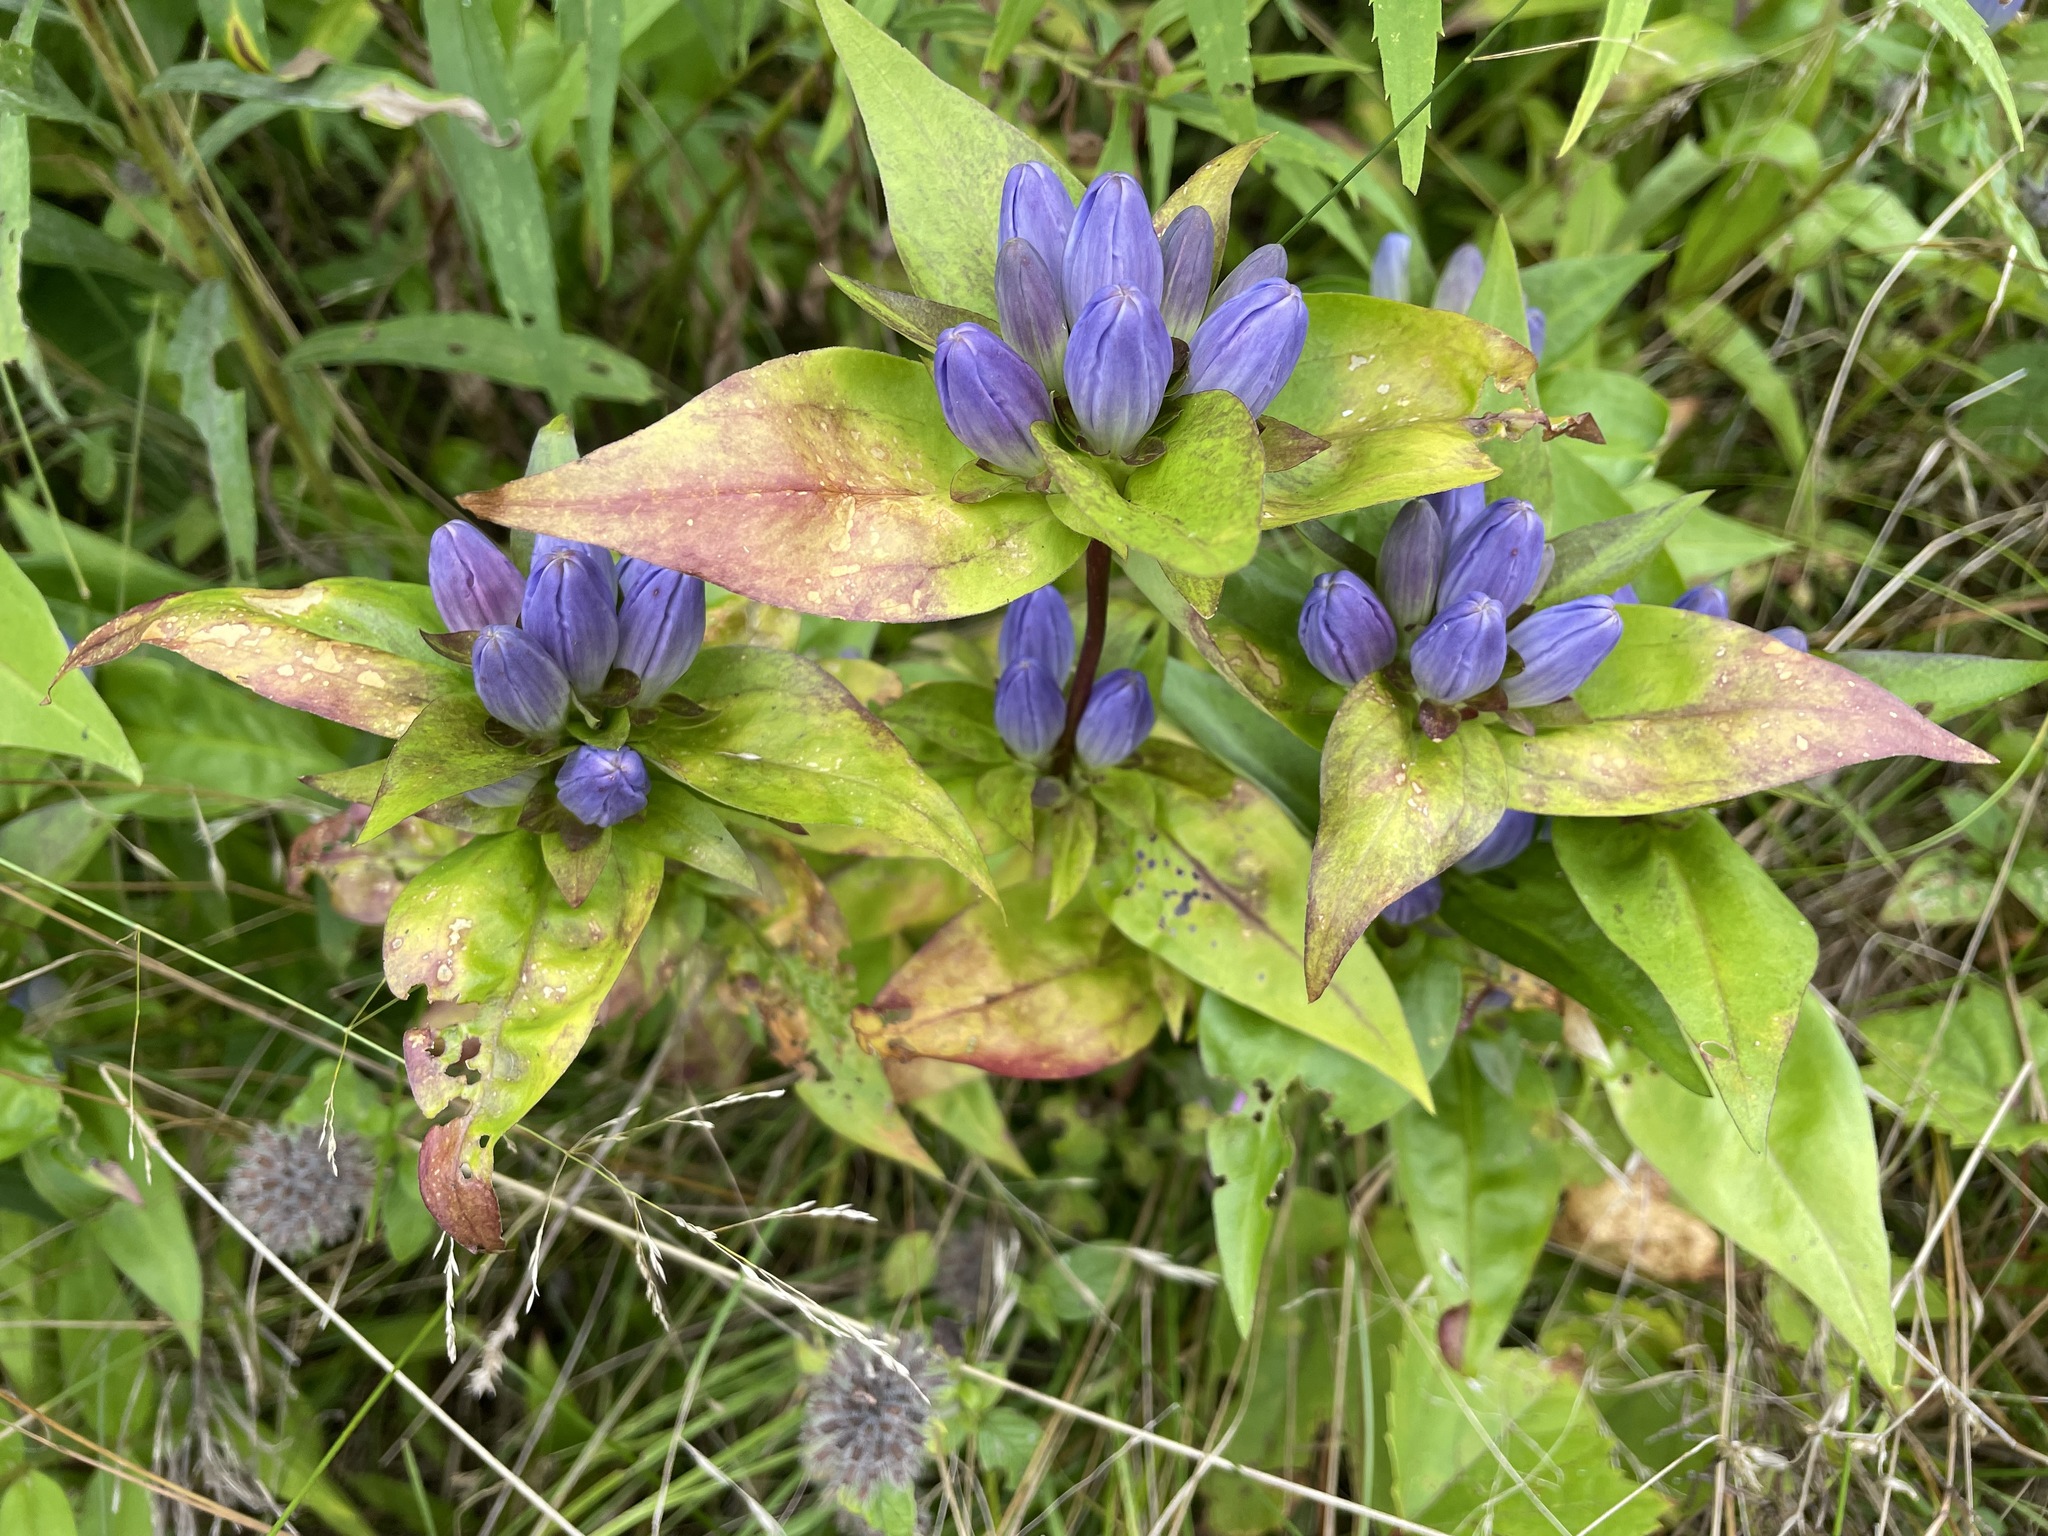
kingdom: Plantae
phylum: Tracheophyta
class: Magnoliopsida
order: Gentianales
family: Gentianaceae
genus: Gentiana
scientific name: Gentiana clausa
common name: Blind gentian
